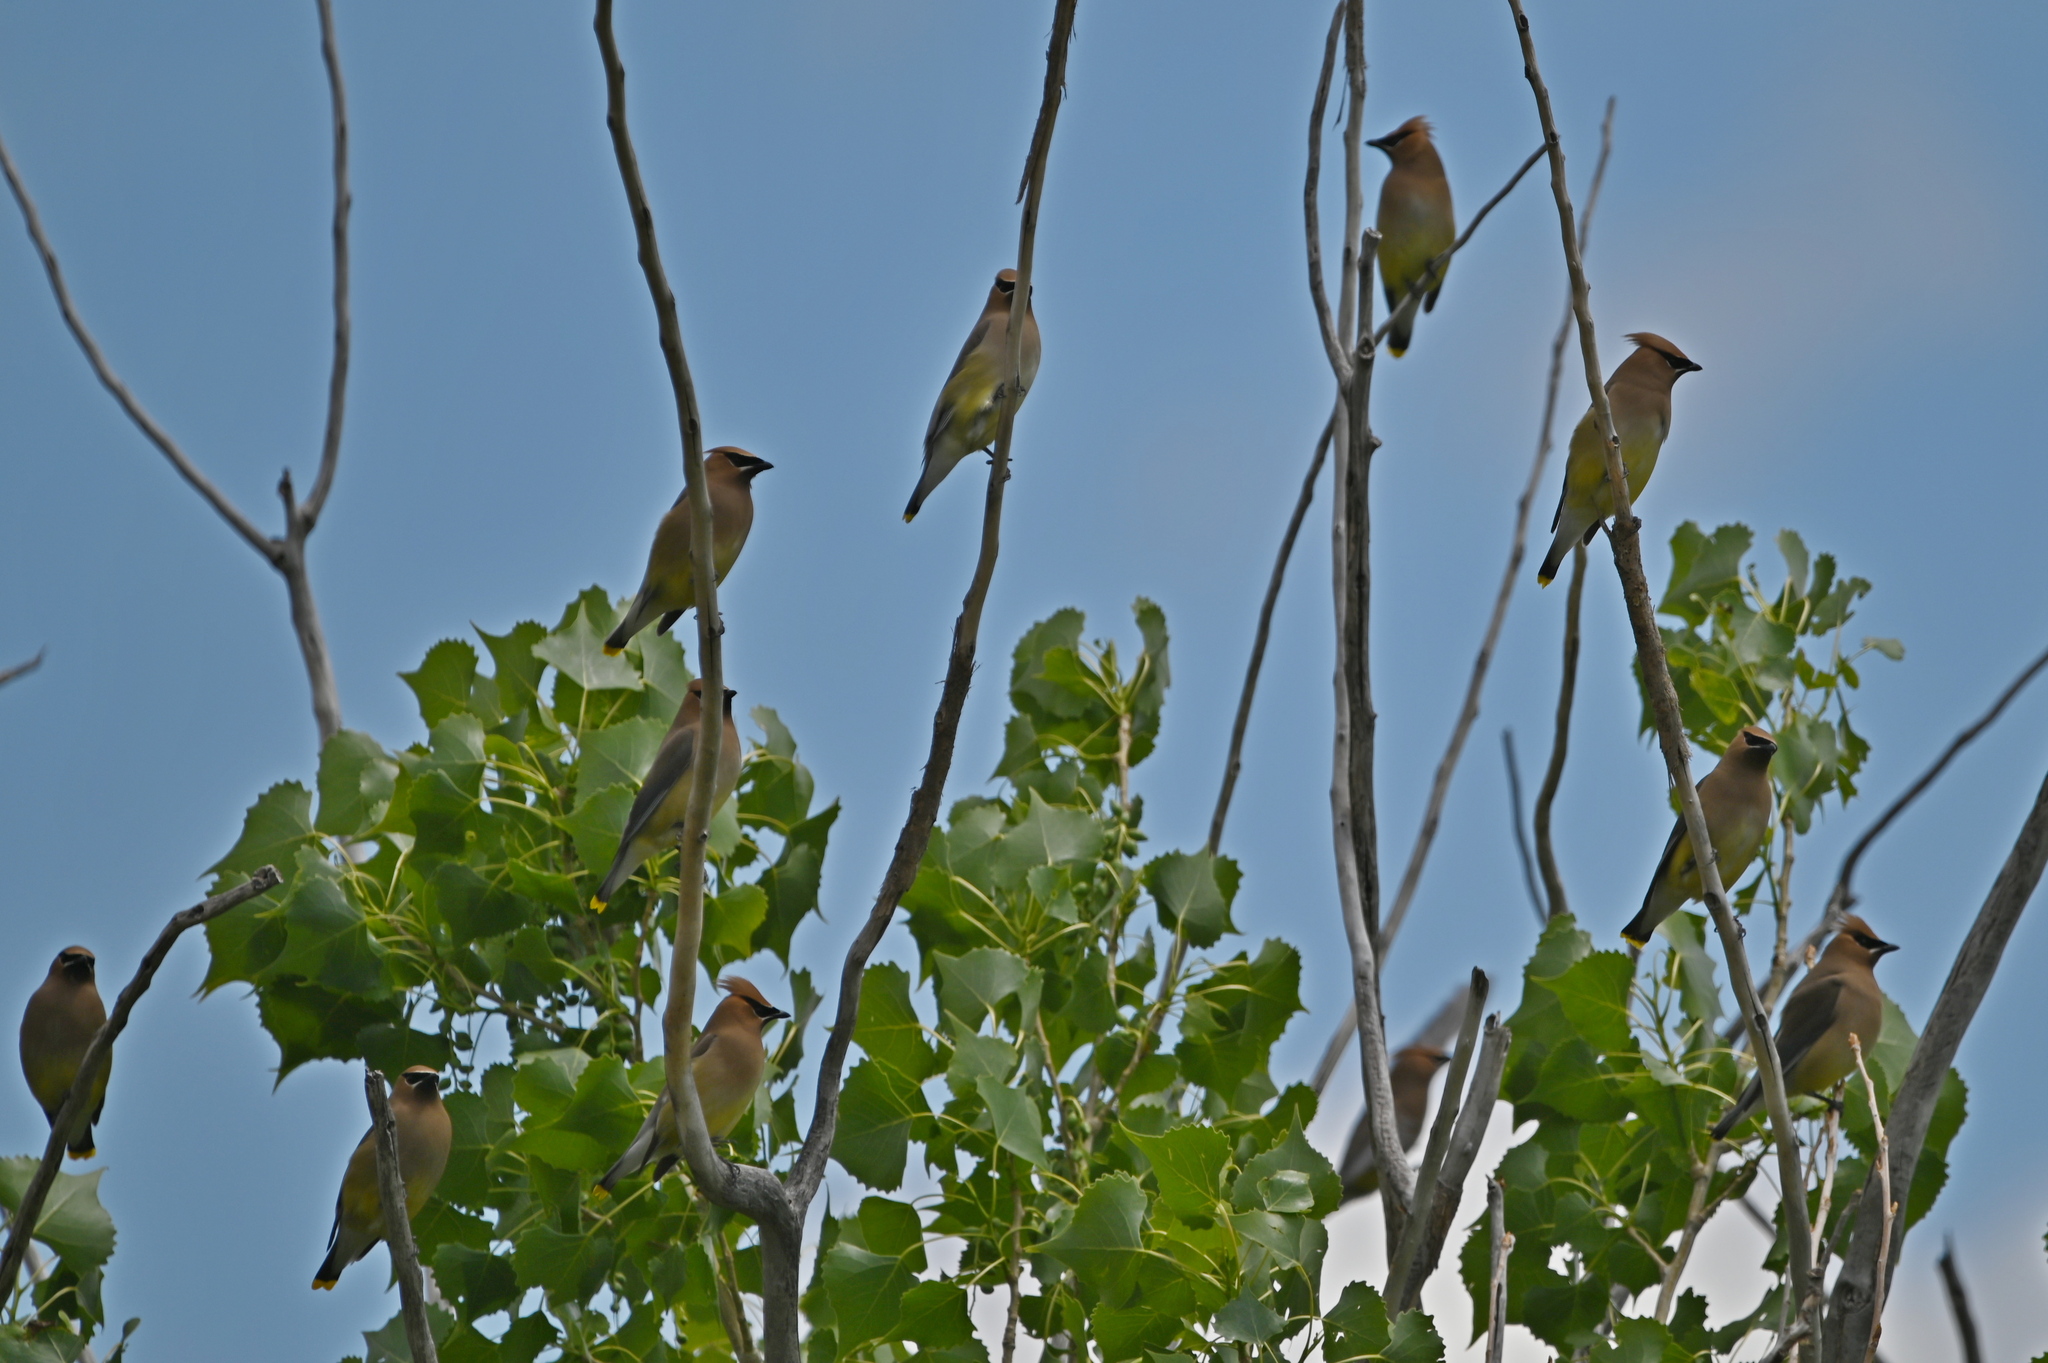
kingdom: Animalia
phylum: Chordata
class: Aves
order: Passeriformes
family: Bombycillidae
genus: Bombycilla
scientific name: Bombycilla cedrorum
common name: Cedar waxwing
